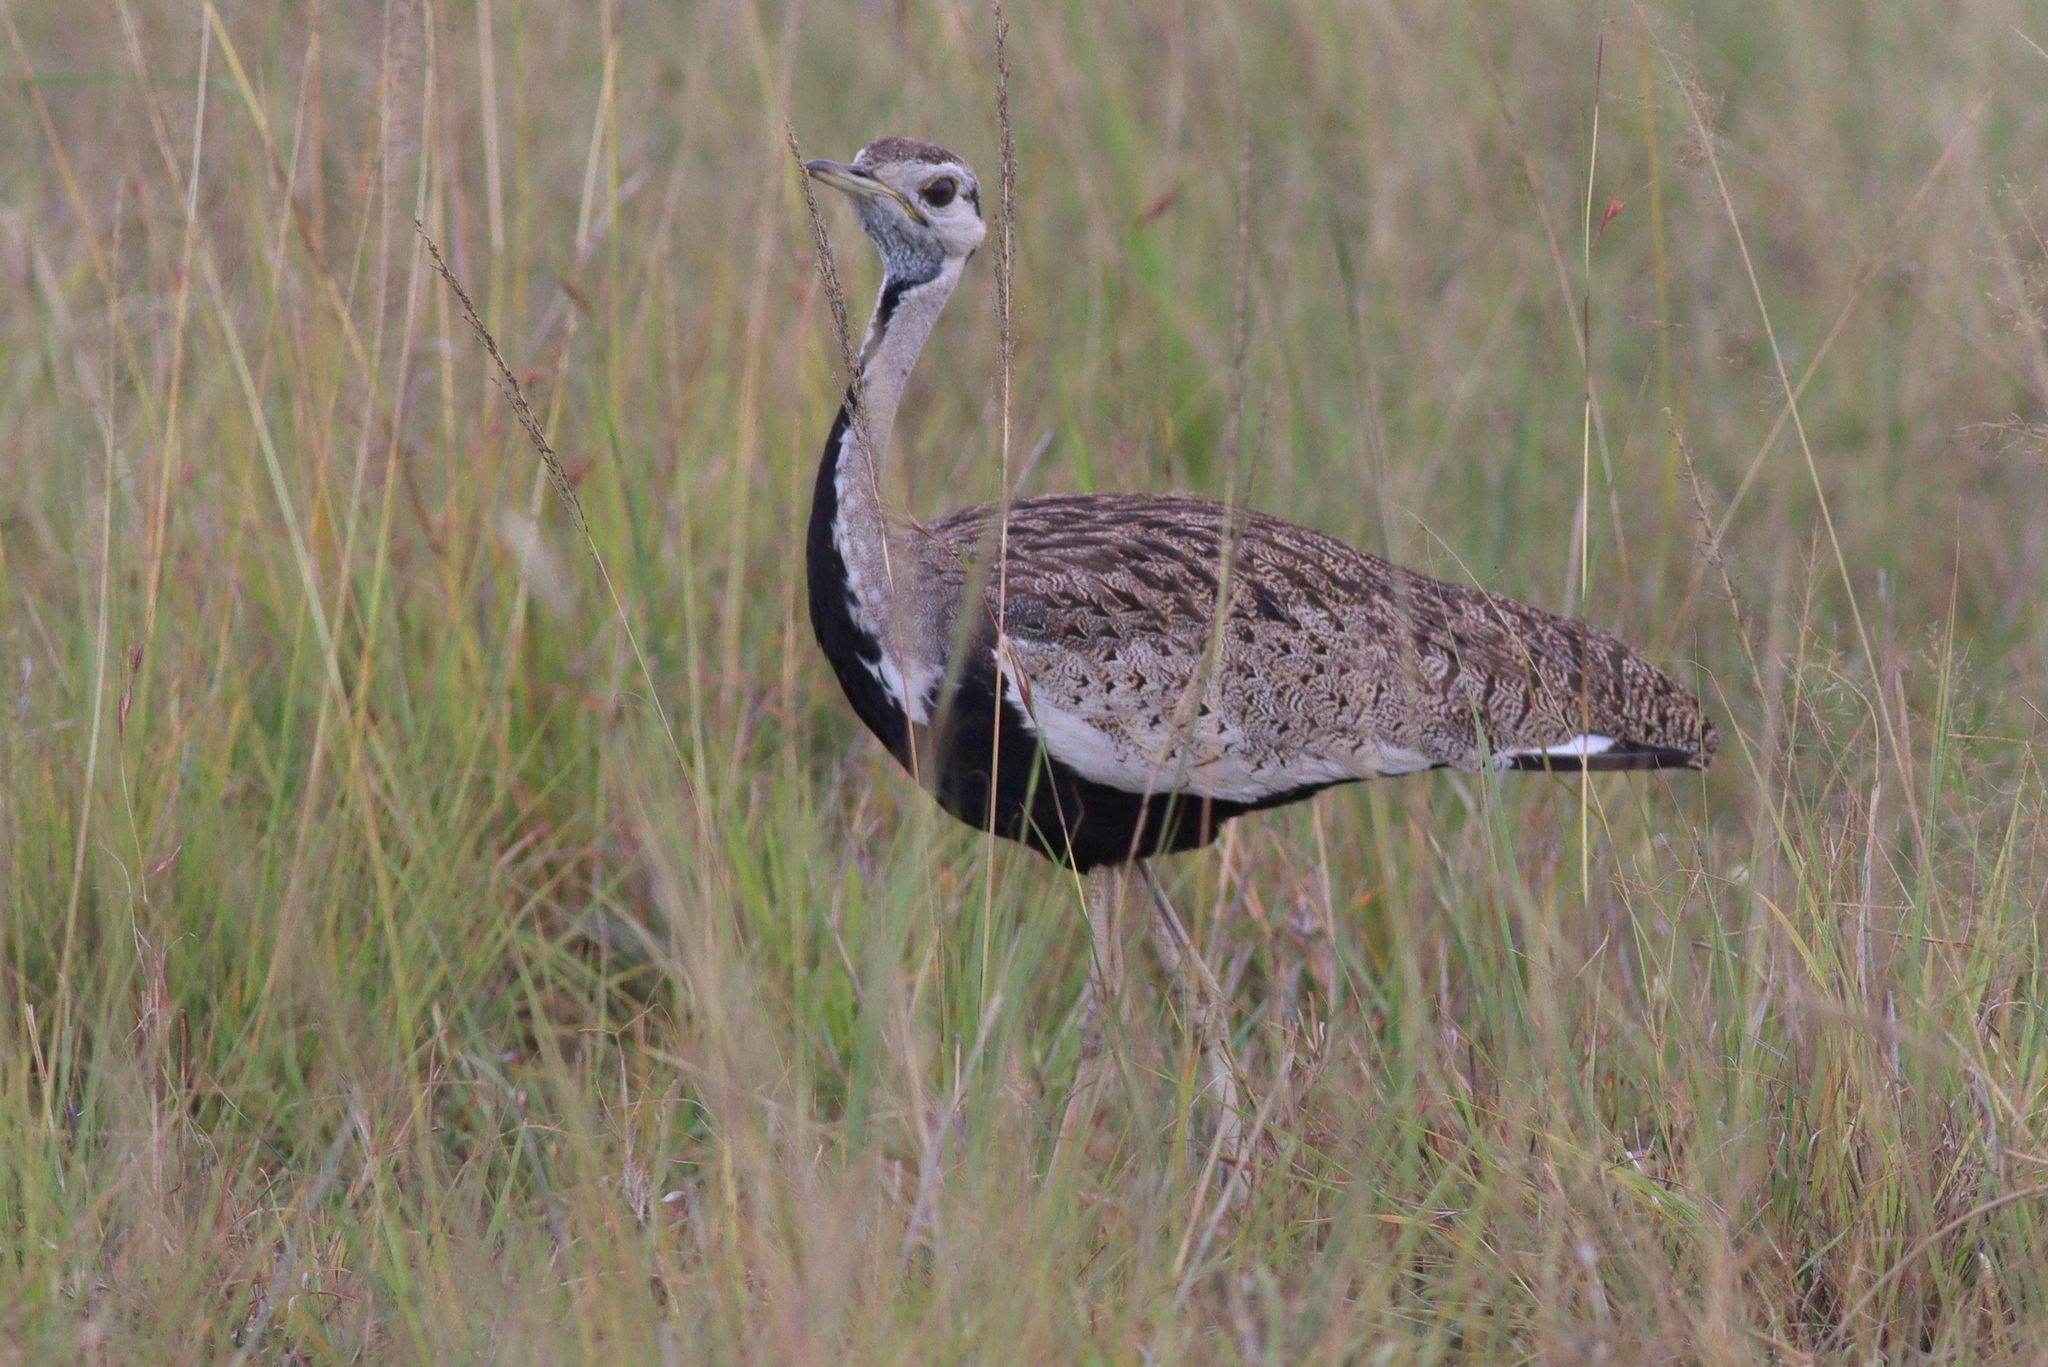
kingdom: Animalia
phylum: Chordata
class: Aves
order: Otidiformes
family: Otididae
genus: Lissotis
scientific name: Lissotis melanogaster
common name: Black-bellied bustard
